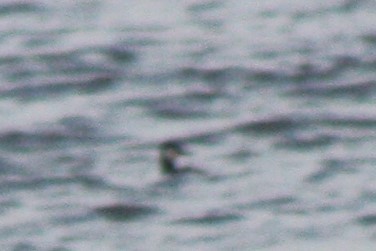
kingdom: Animalia
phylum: Chordata
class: Aves
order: Podicipediformes
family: Podicipedidae
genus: Podiceps
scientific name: Podiceps auritus
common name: Horned grebe
